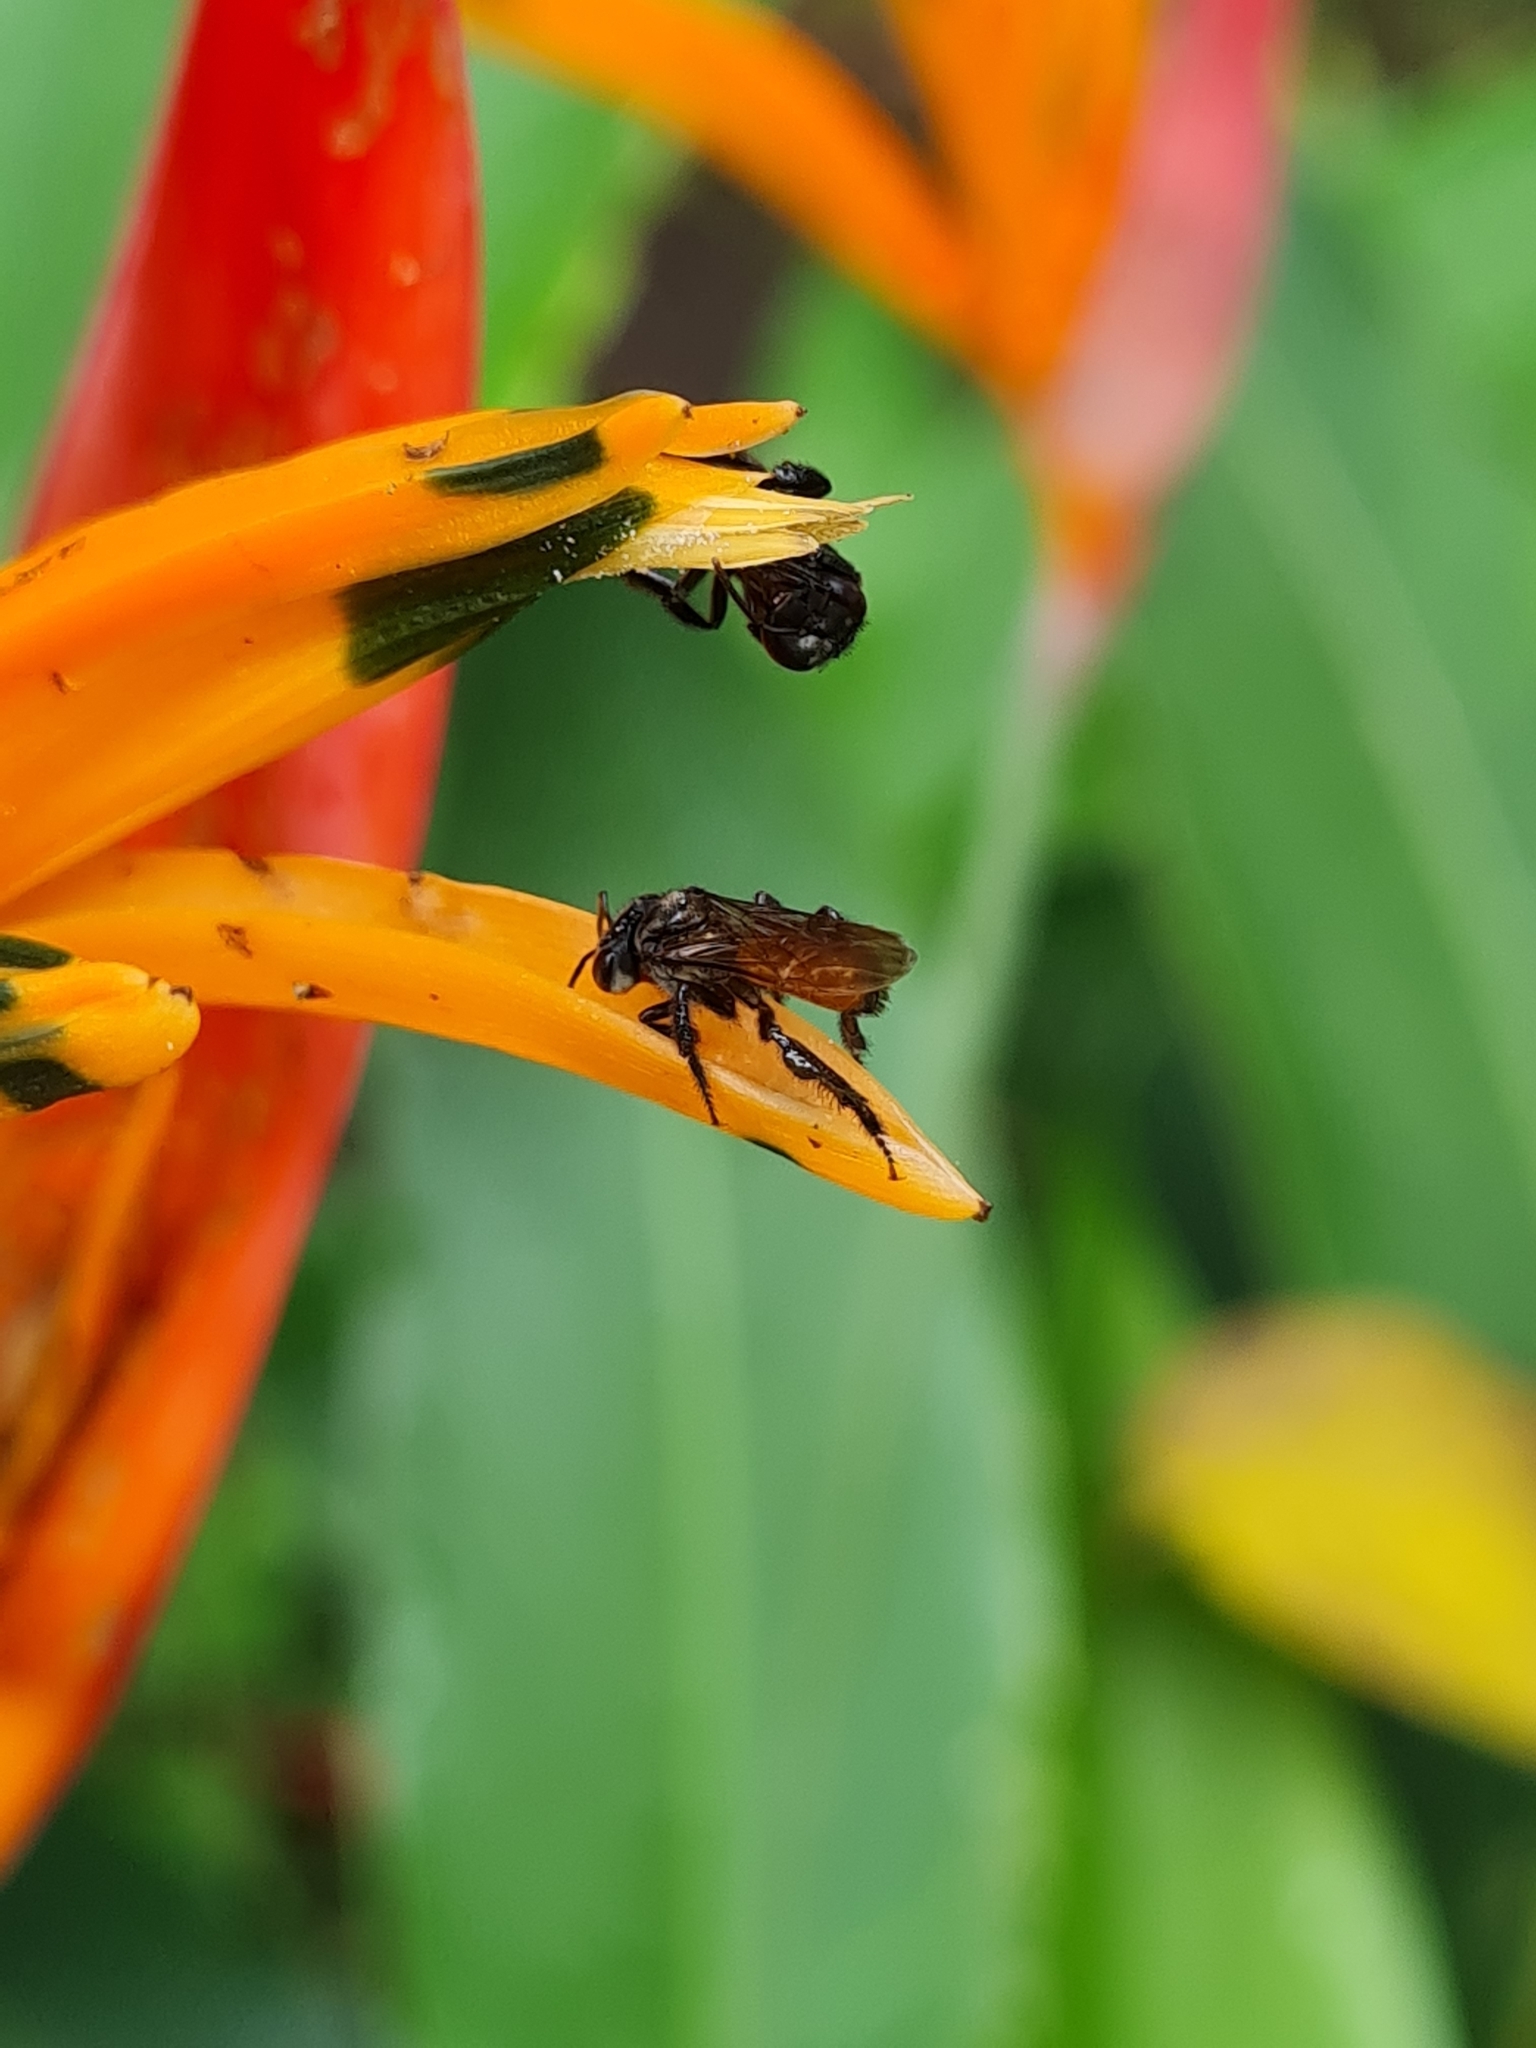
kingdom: Animalia
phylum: Arthropoda
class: Insecta
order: Hymenoptera
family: Apidae
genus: Trigona
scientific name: Trigona fulviventris
